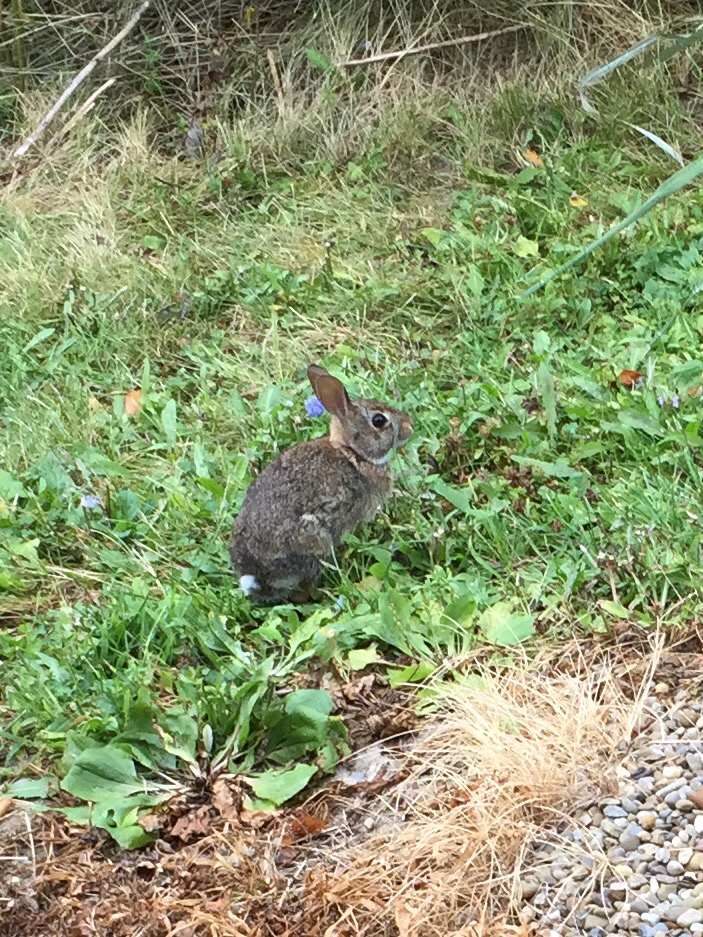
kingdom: Animalia
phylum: Chordata
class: Mammalia
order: Lagomorpha
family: Leporidae
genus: Sylvilagus
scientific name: Sylvilagus floridanus
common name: Eastern cottontail
